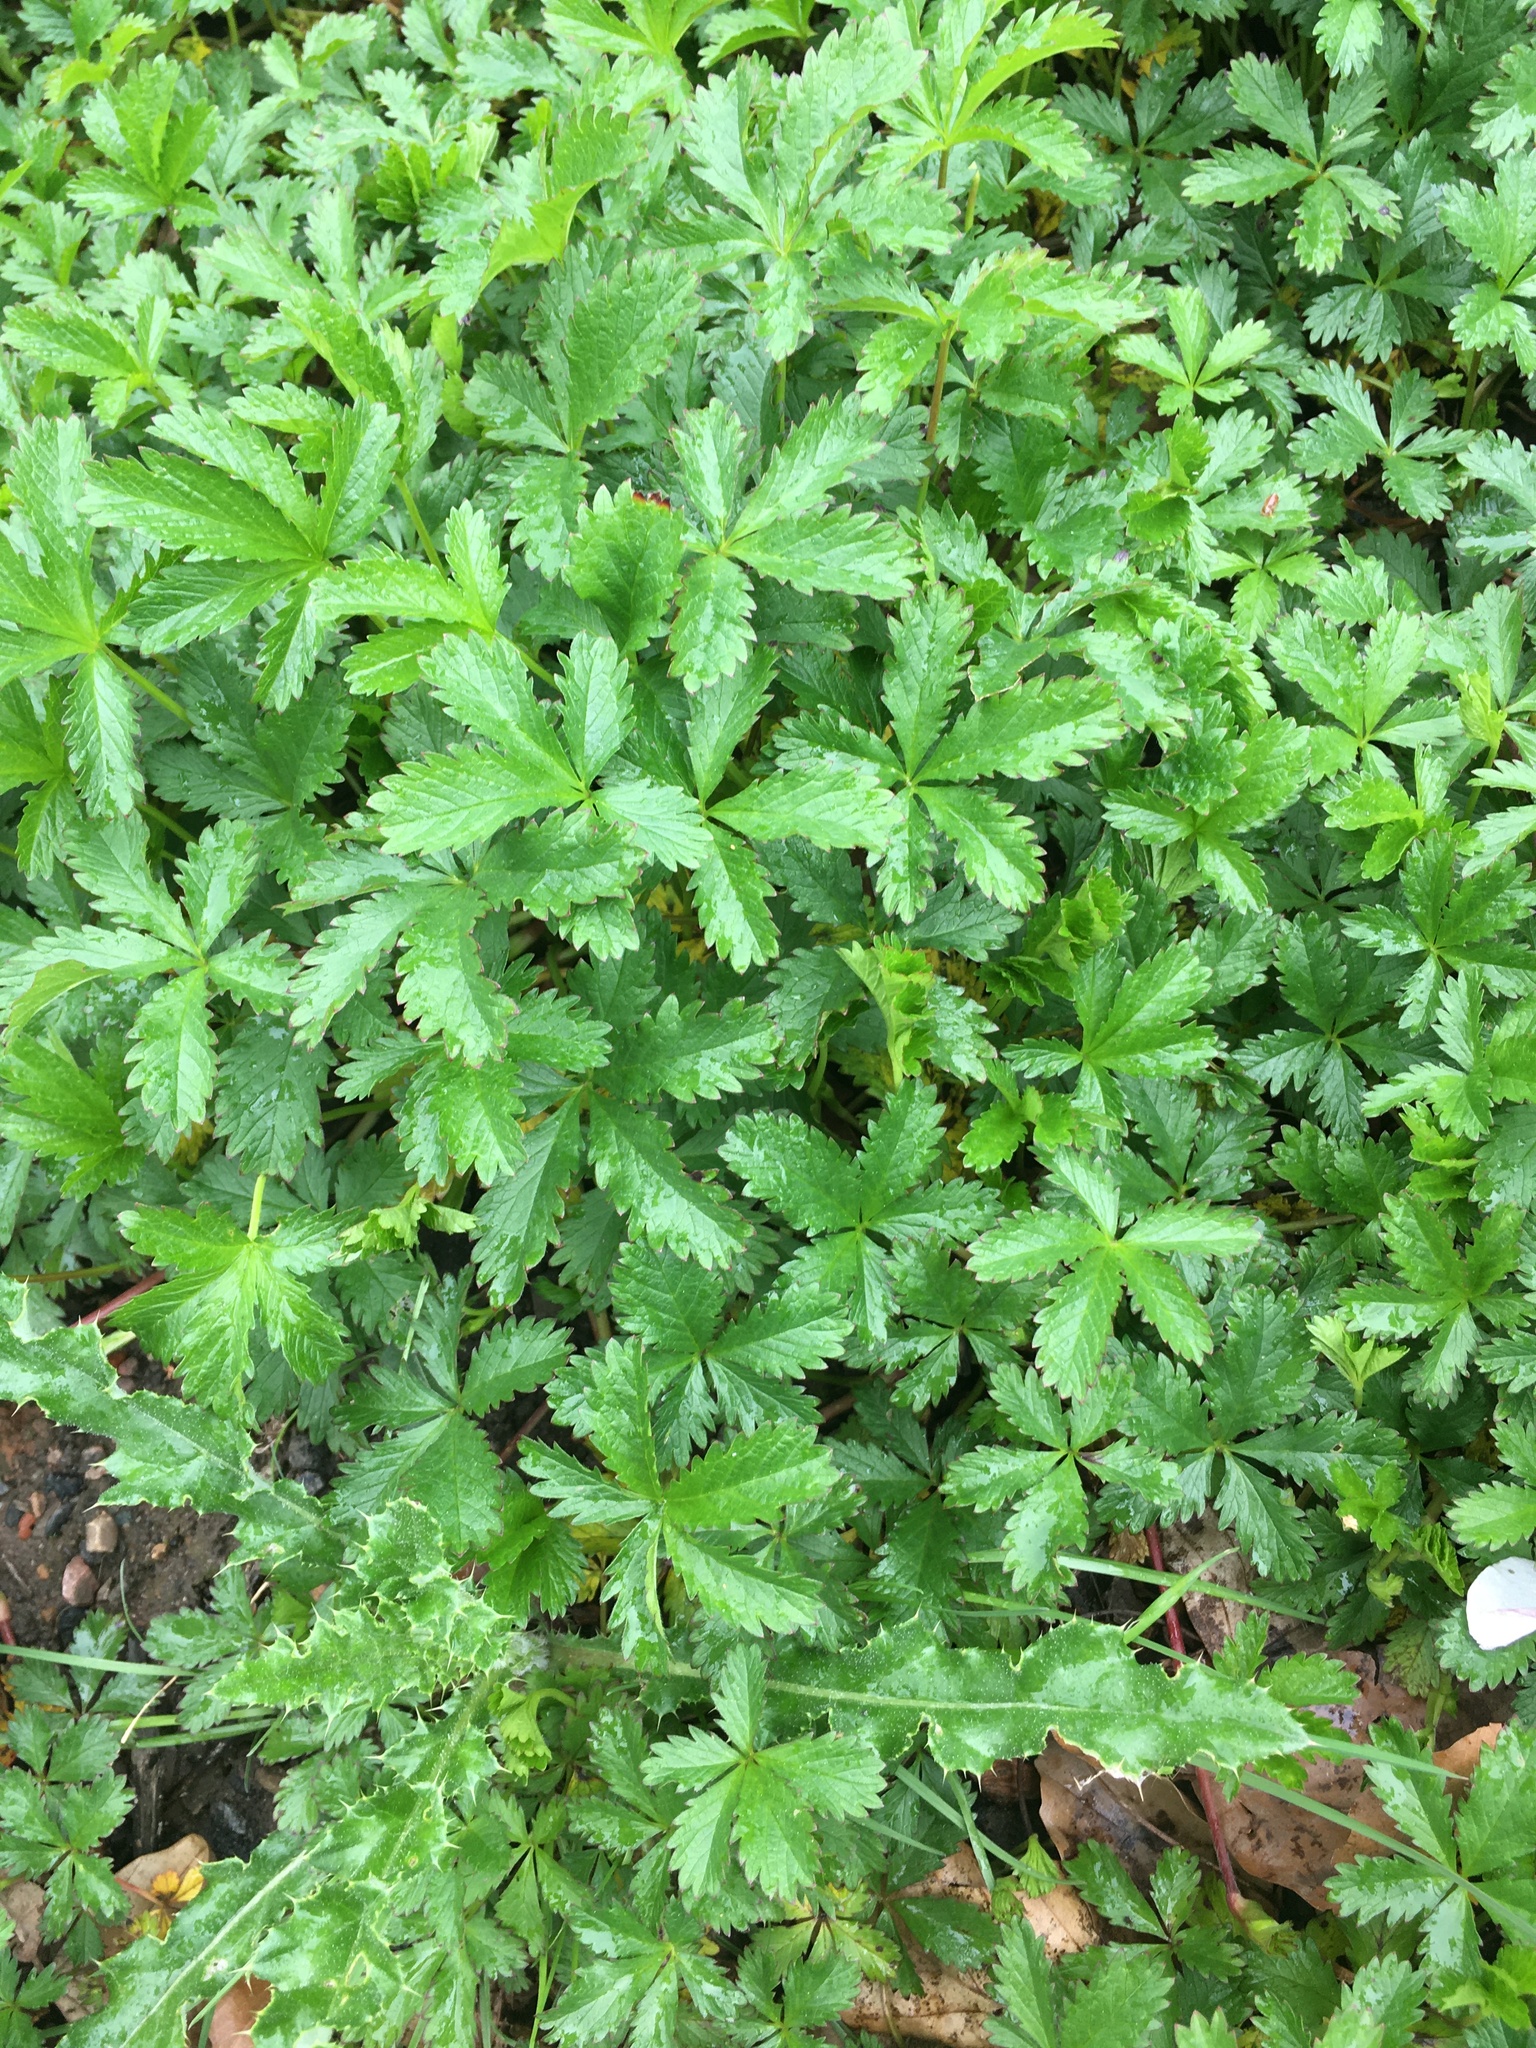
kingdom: Plantae
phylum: Tracheophyta
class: Magnoliopsida
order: Rosales
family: Rosaceae
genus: Potentilla
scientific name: Potentilla reptans
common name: Creeping cinquefoil
